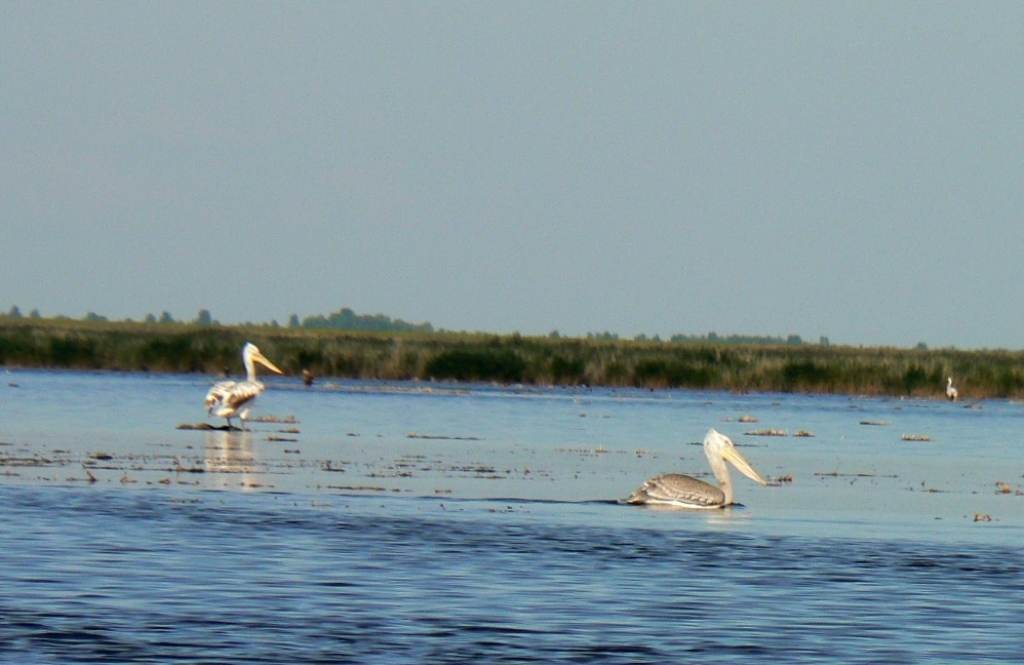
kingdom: Animalia
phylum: Chordata
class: Aves
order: Pelecaniformes
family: Pelecanidae
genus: Pelecanus
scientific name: Pelecanus crispus
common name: Dalmatian pelican
